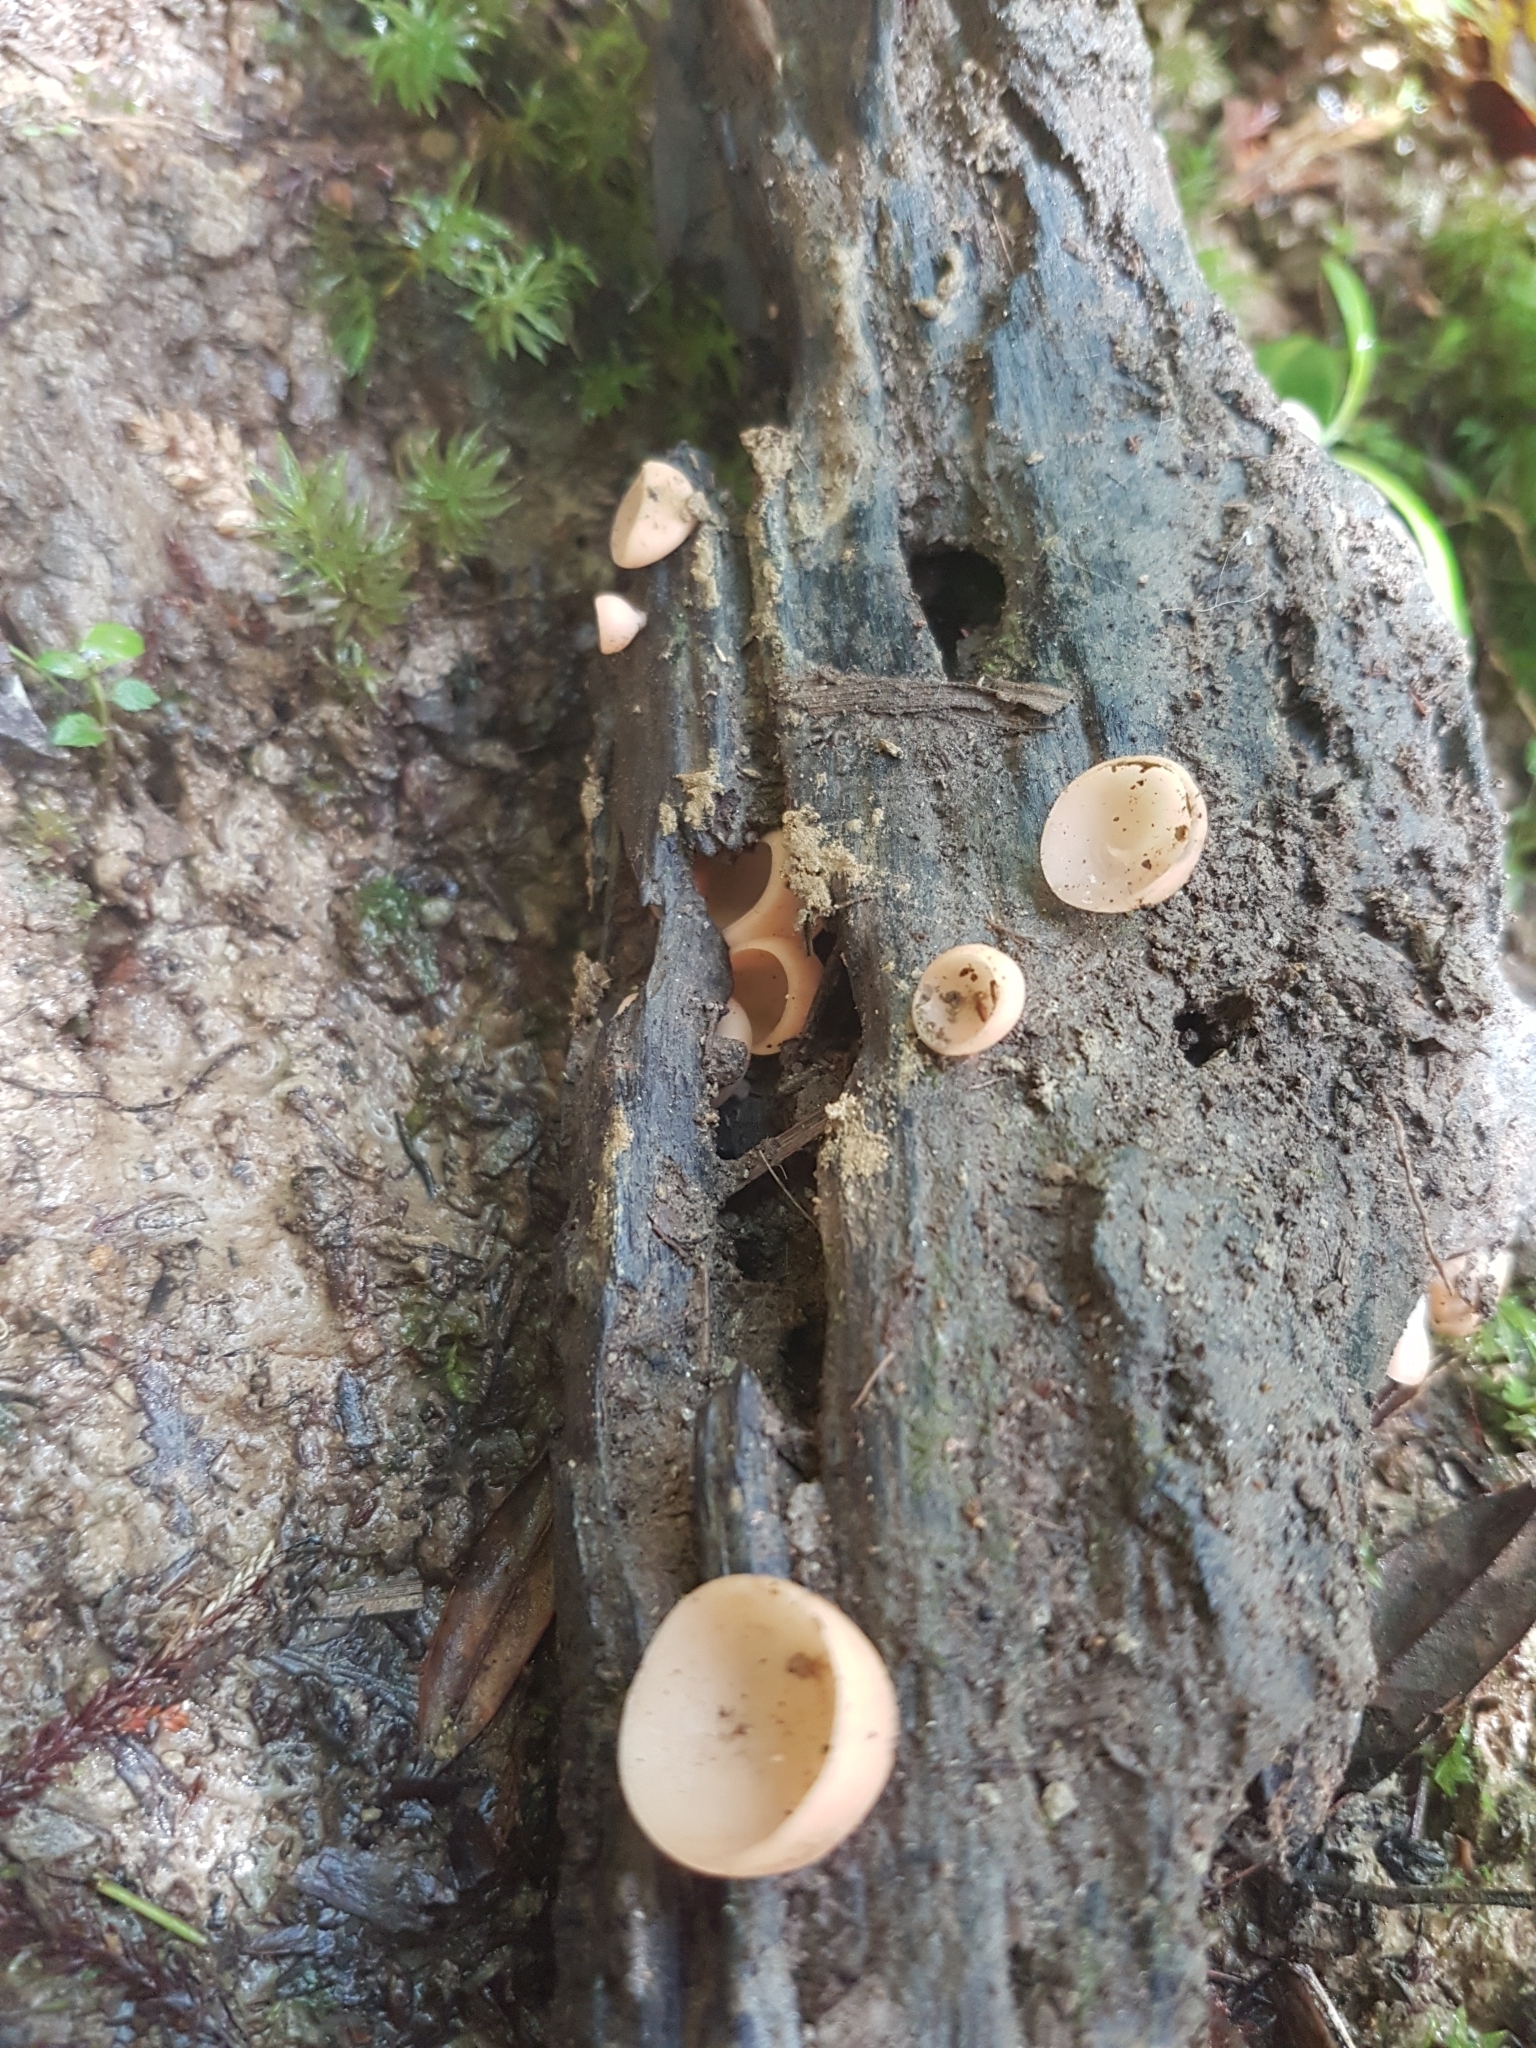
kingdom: Fungi
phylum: Ascomycota
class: Pezizomycetes
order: Pezizales
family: Sarcoscyphaceae
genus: Cookeina
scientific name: Cookeina colensoi
